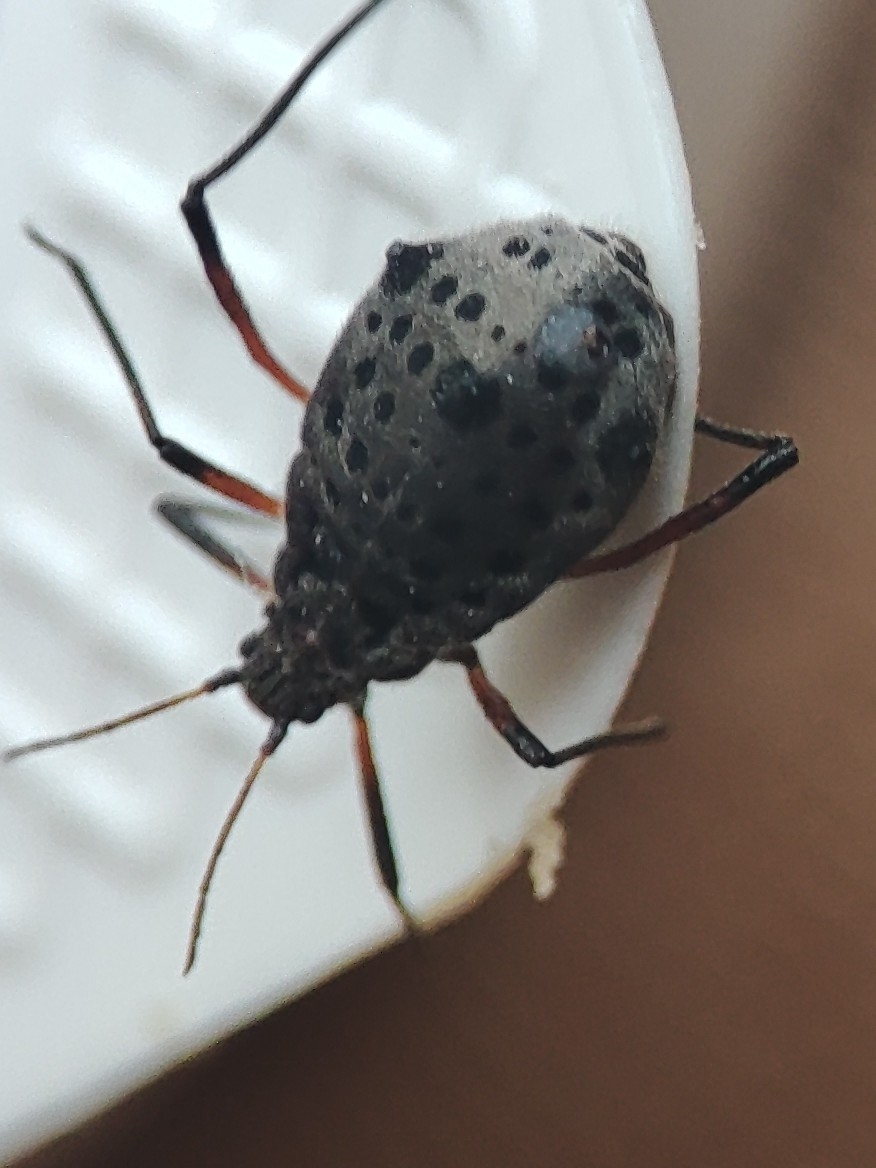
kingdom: Animalia
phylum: Arthropoda
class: Insecta
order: Hemiptera
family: Aphididae
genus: Tuberolachnus
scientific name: Tuberolachnus salignus
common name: Giant willow aphid
